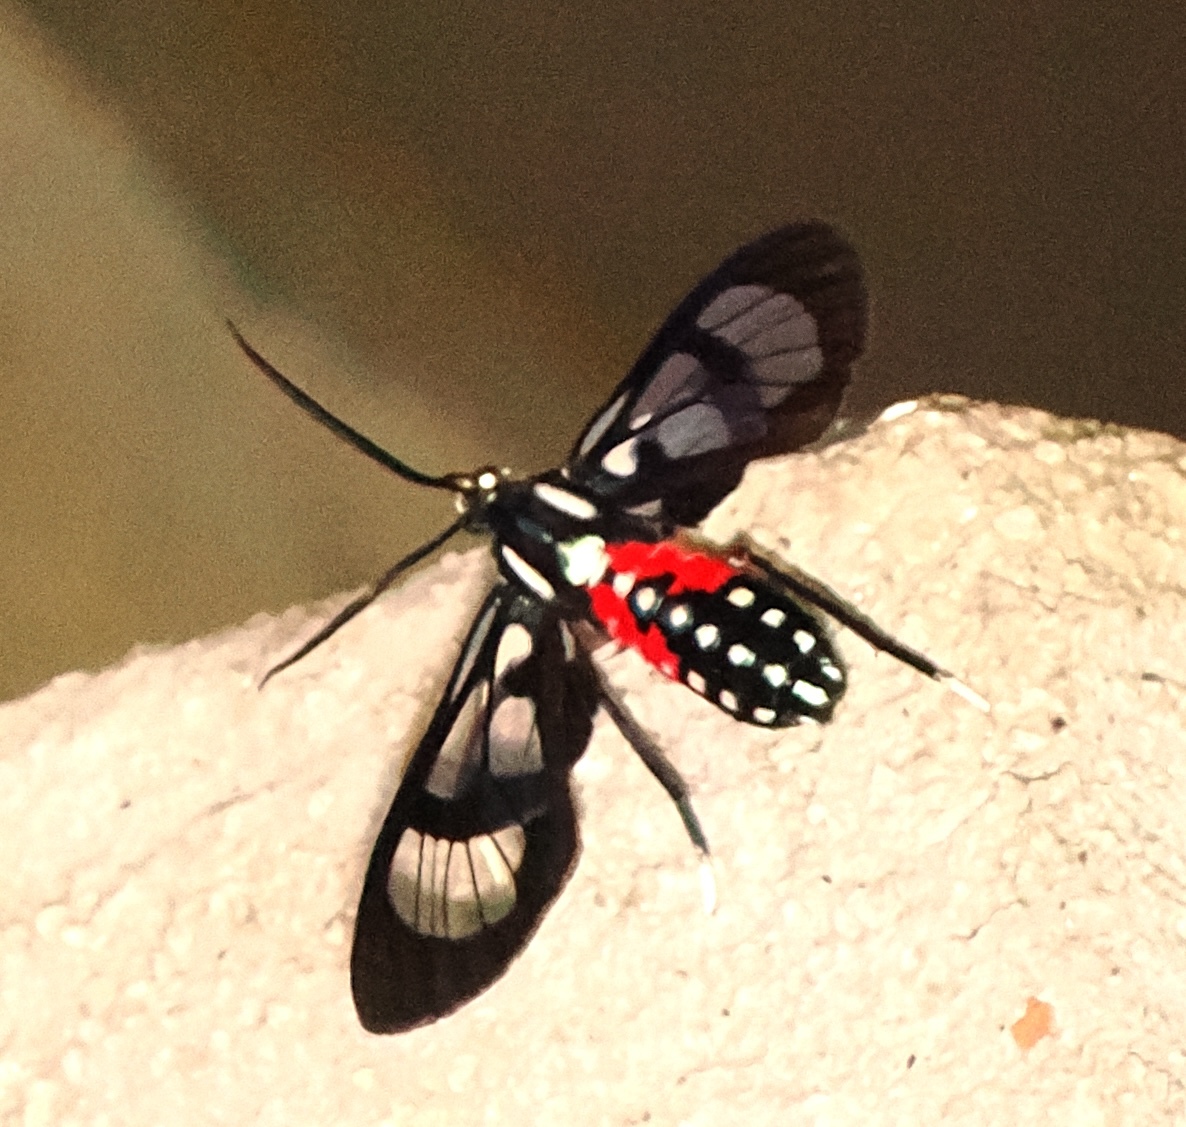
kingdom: Animalia
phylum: Arthropoda
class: Insecta
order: Lepidoptera
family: Erebidae
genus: Poecilosoma
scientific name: Poecilosoma eone
